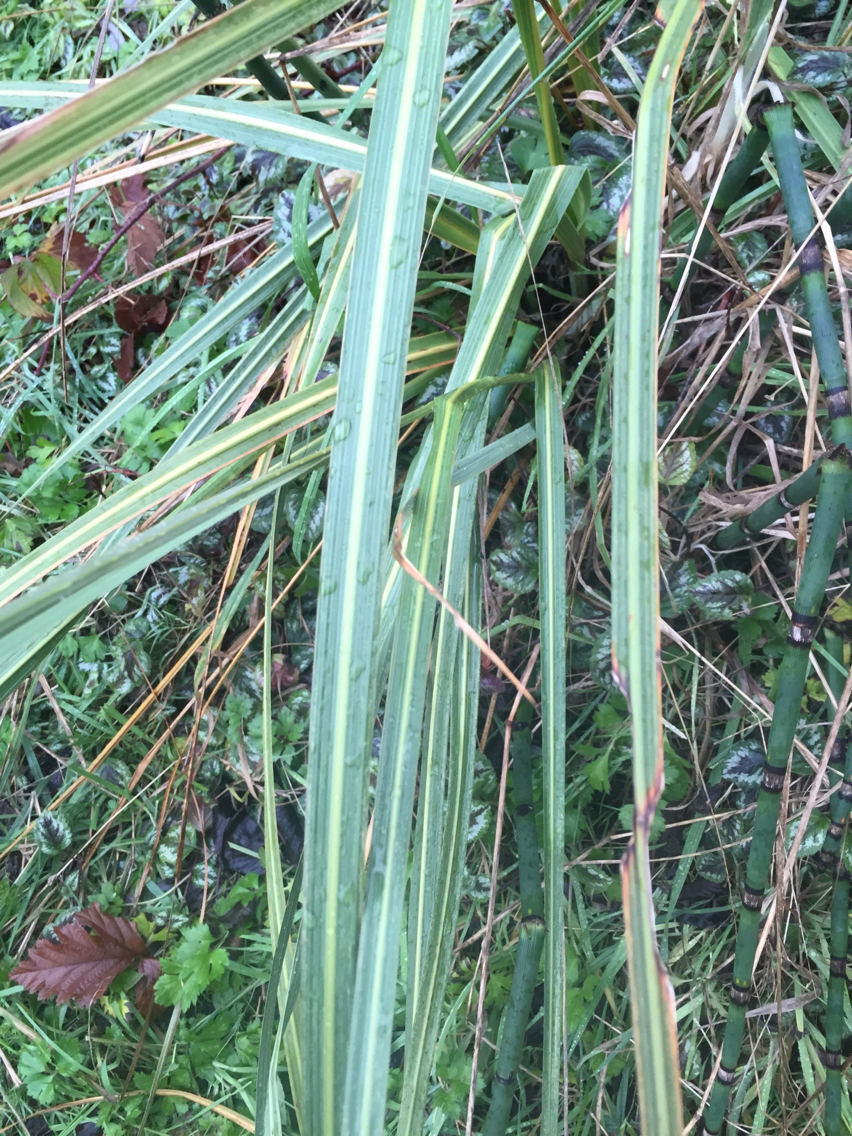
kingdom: Plantae
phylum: Tracheophyta
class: Liliopsida
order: Poales
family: Poaceae
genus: Austroderia
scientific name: Austroderia richardii
